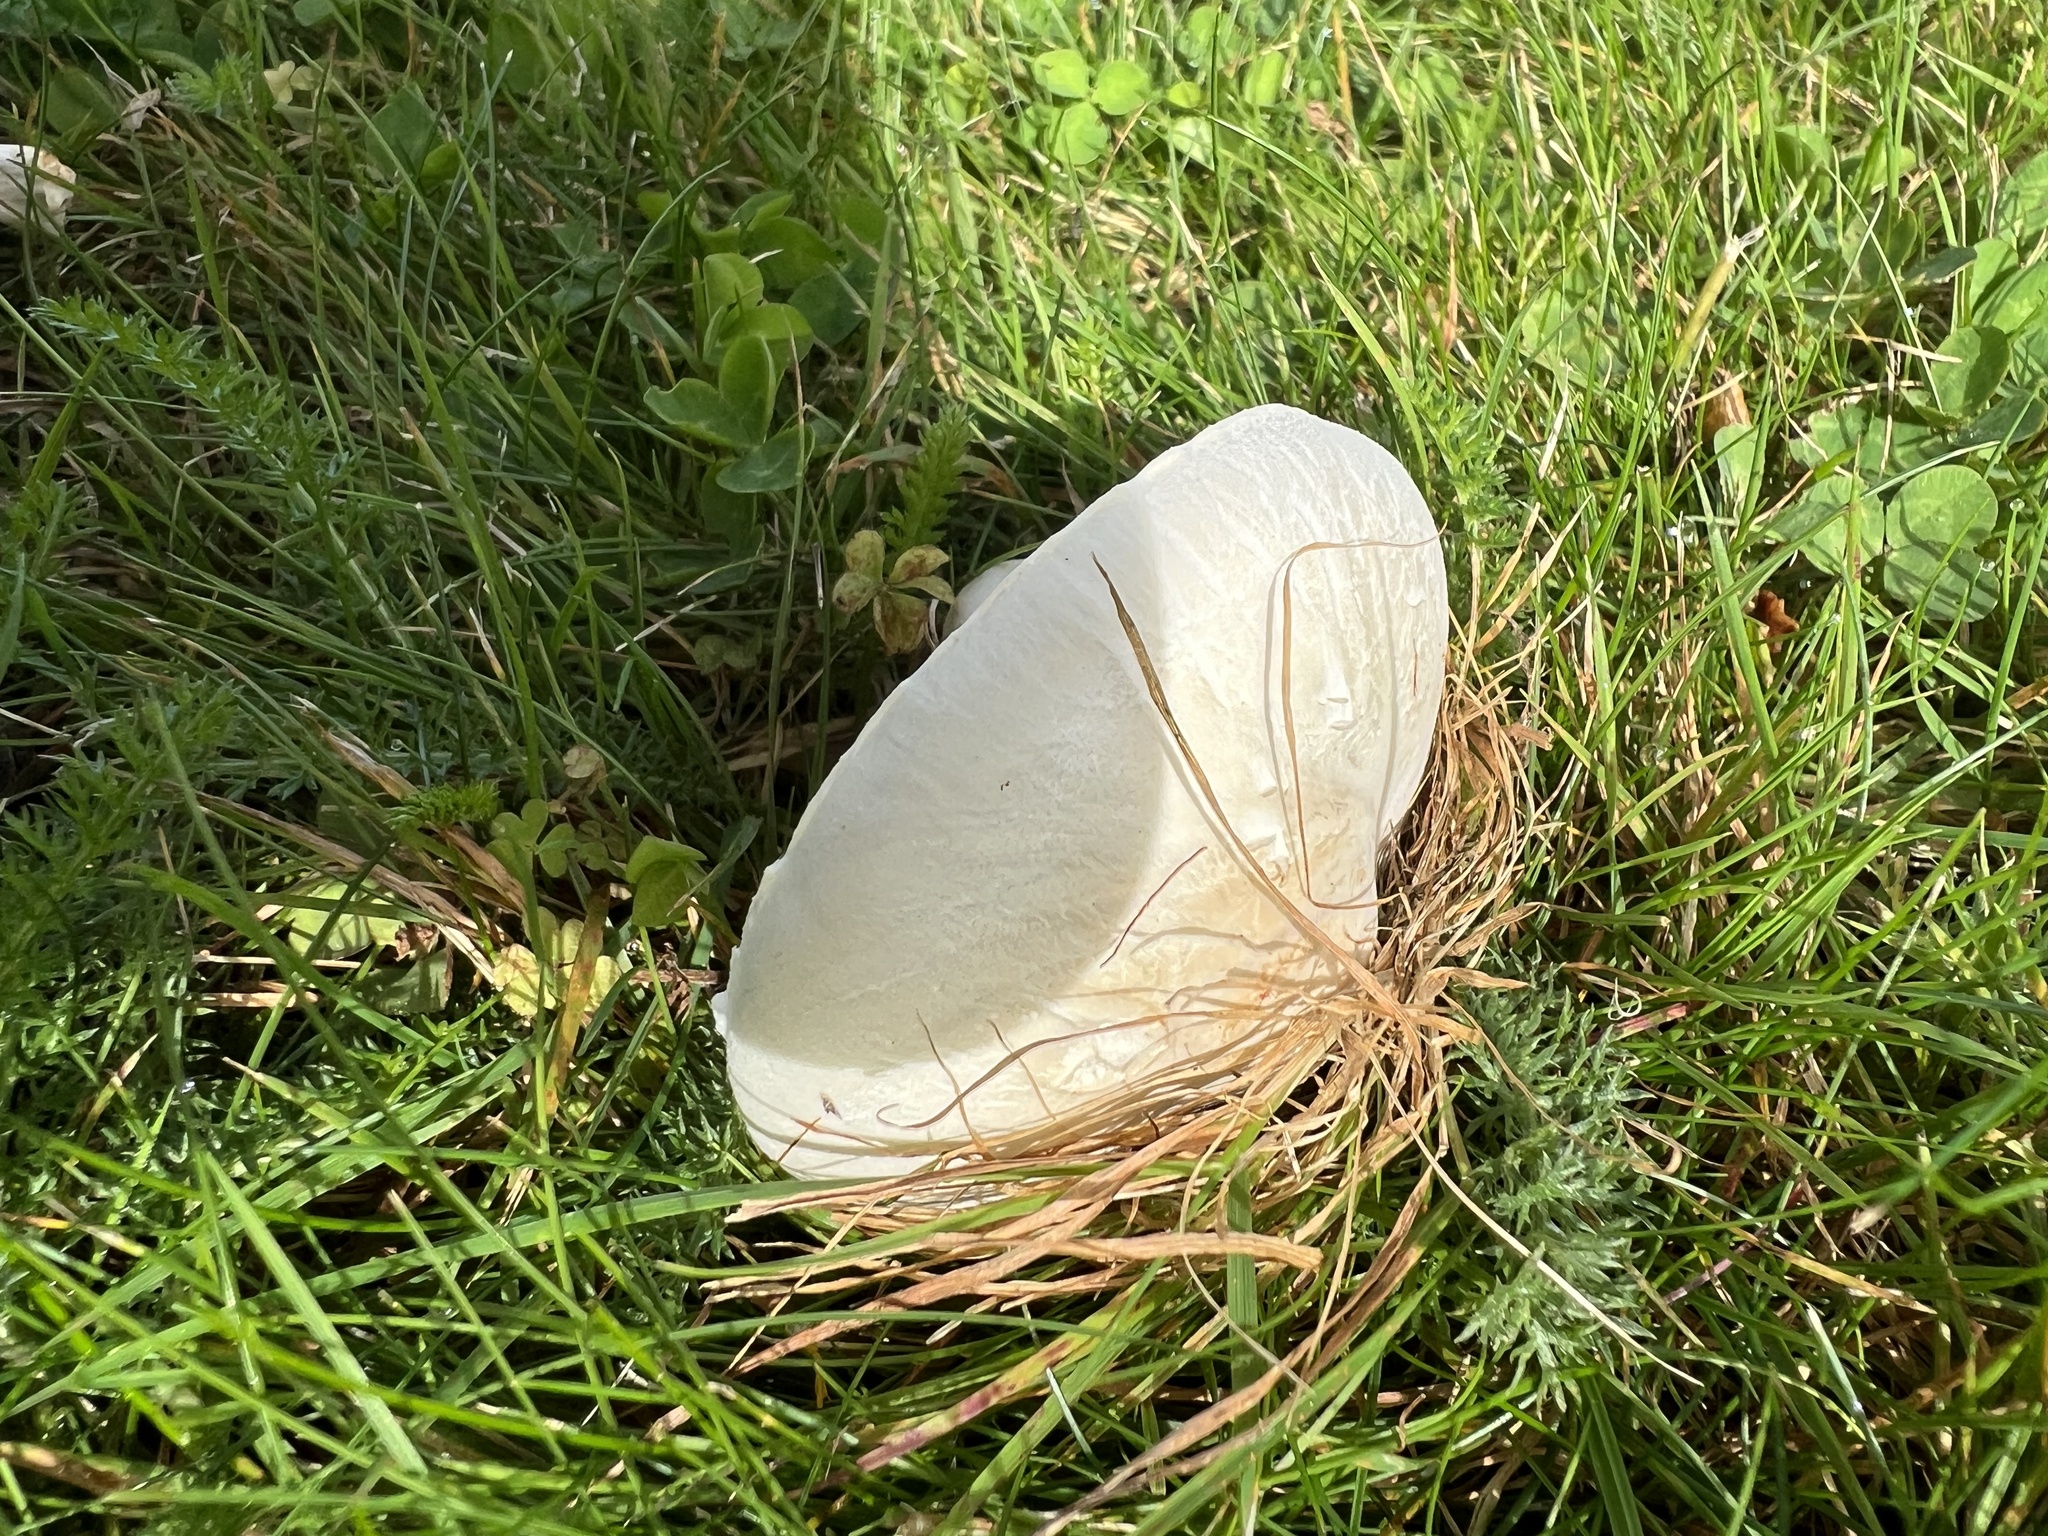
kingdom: Fungi
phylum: Basidiomycota
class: Agaricomycetes
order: Agaricales
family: Agaricaceae
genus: Leucoagaricus
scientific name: Leucoagaricus leucothites
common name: White dapperling
